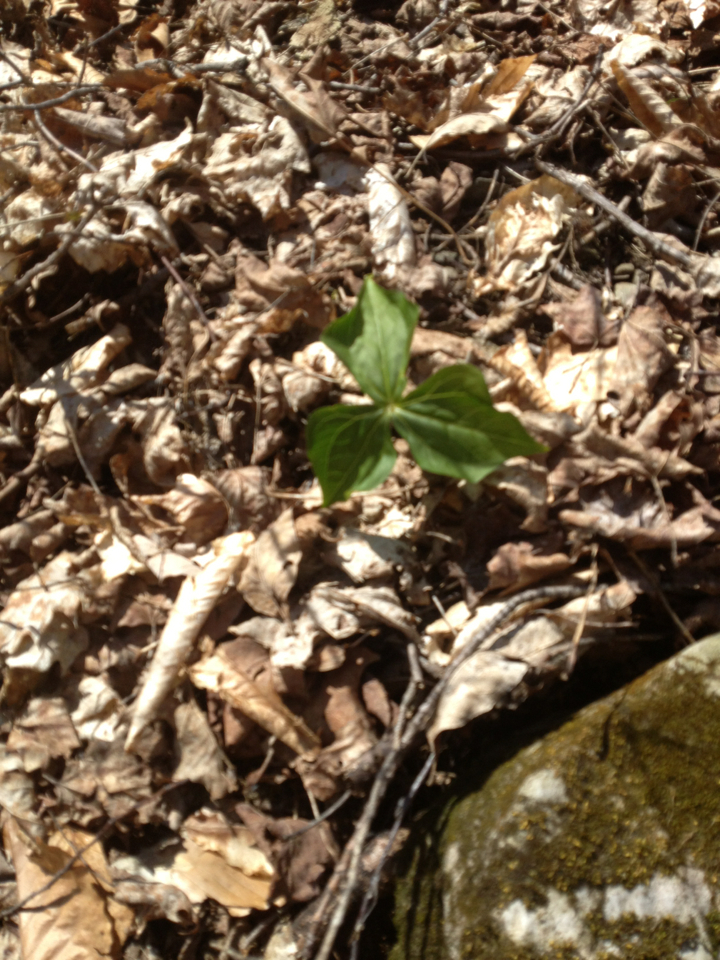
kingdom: Plantae
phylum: Tracheophyta
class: Liliopsida
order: Liliales
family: Melanthiaceae
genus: Trillium
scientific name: Trillium erectum
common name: Purple trillium
